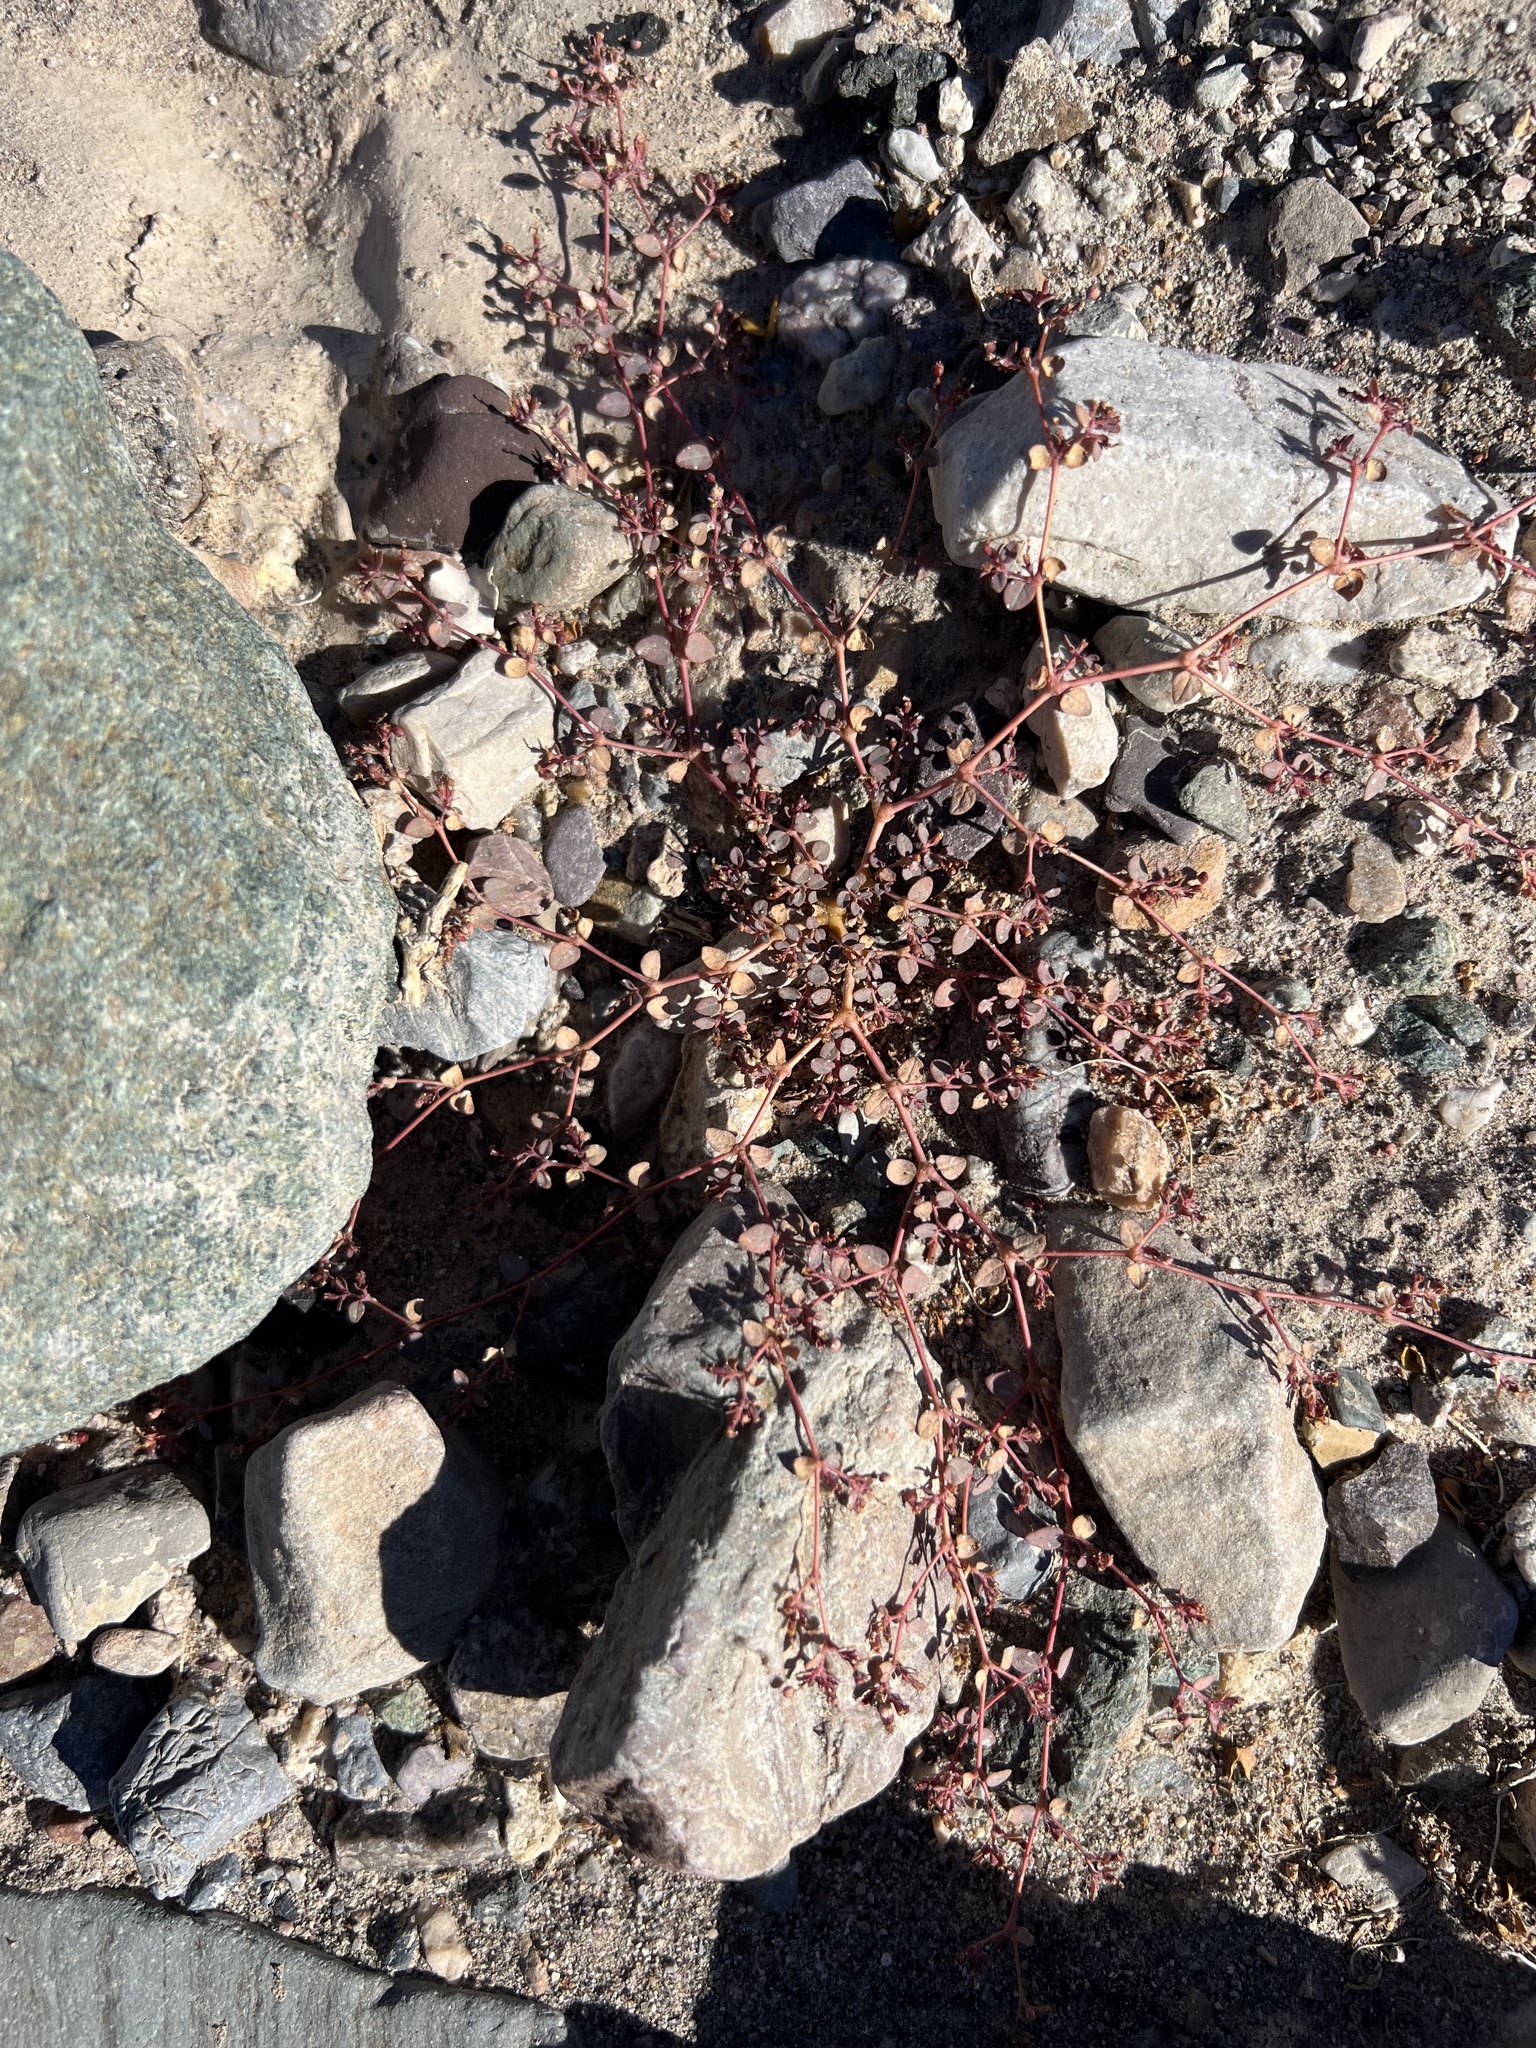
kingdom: Plantae
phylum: Tracheophyta
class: Magnoliopsida
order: Malpighiales
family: Euphorbiaceae
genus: Euphorbia
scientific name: Euphorbia parishii
